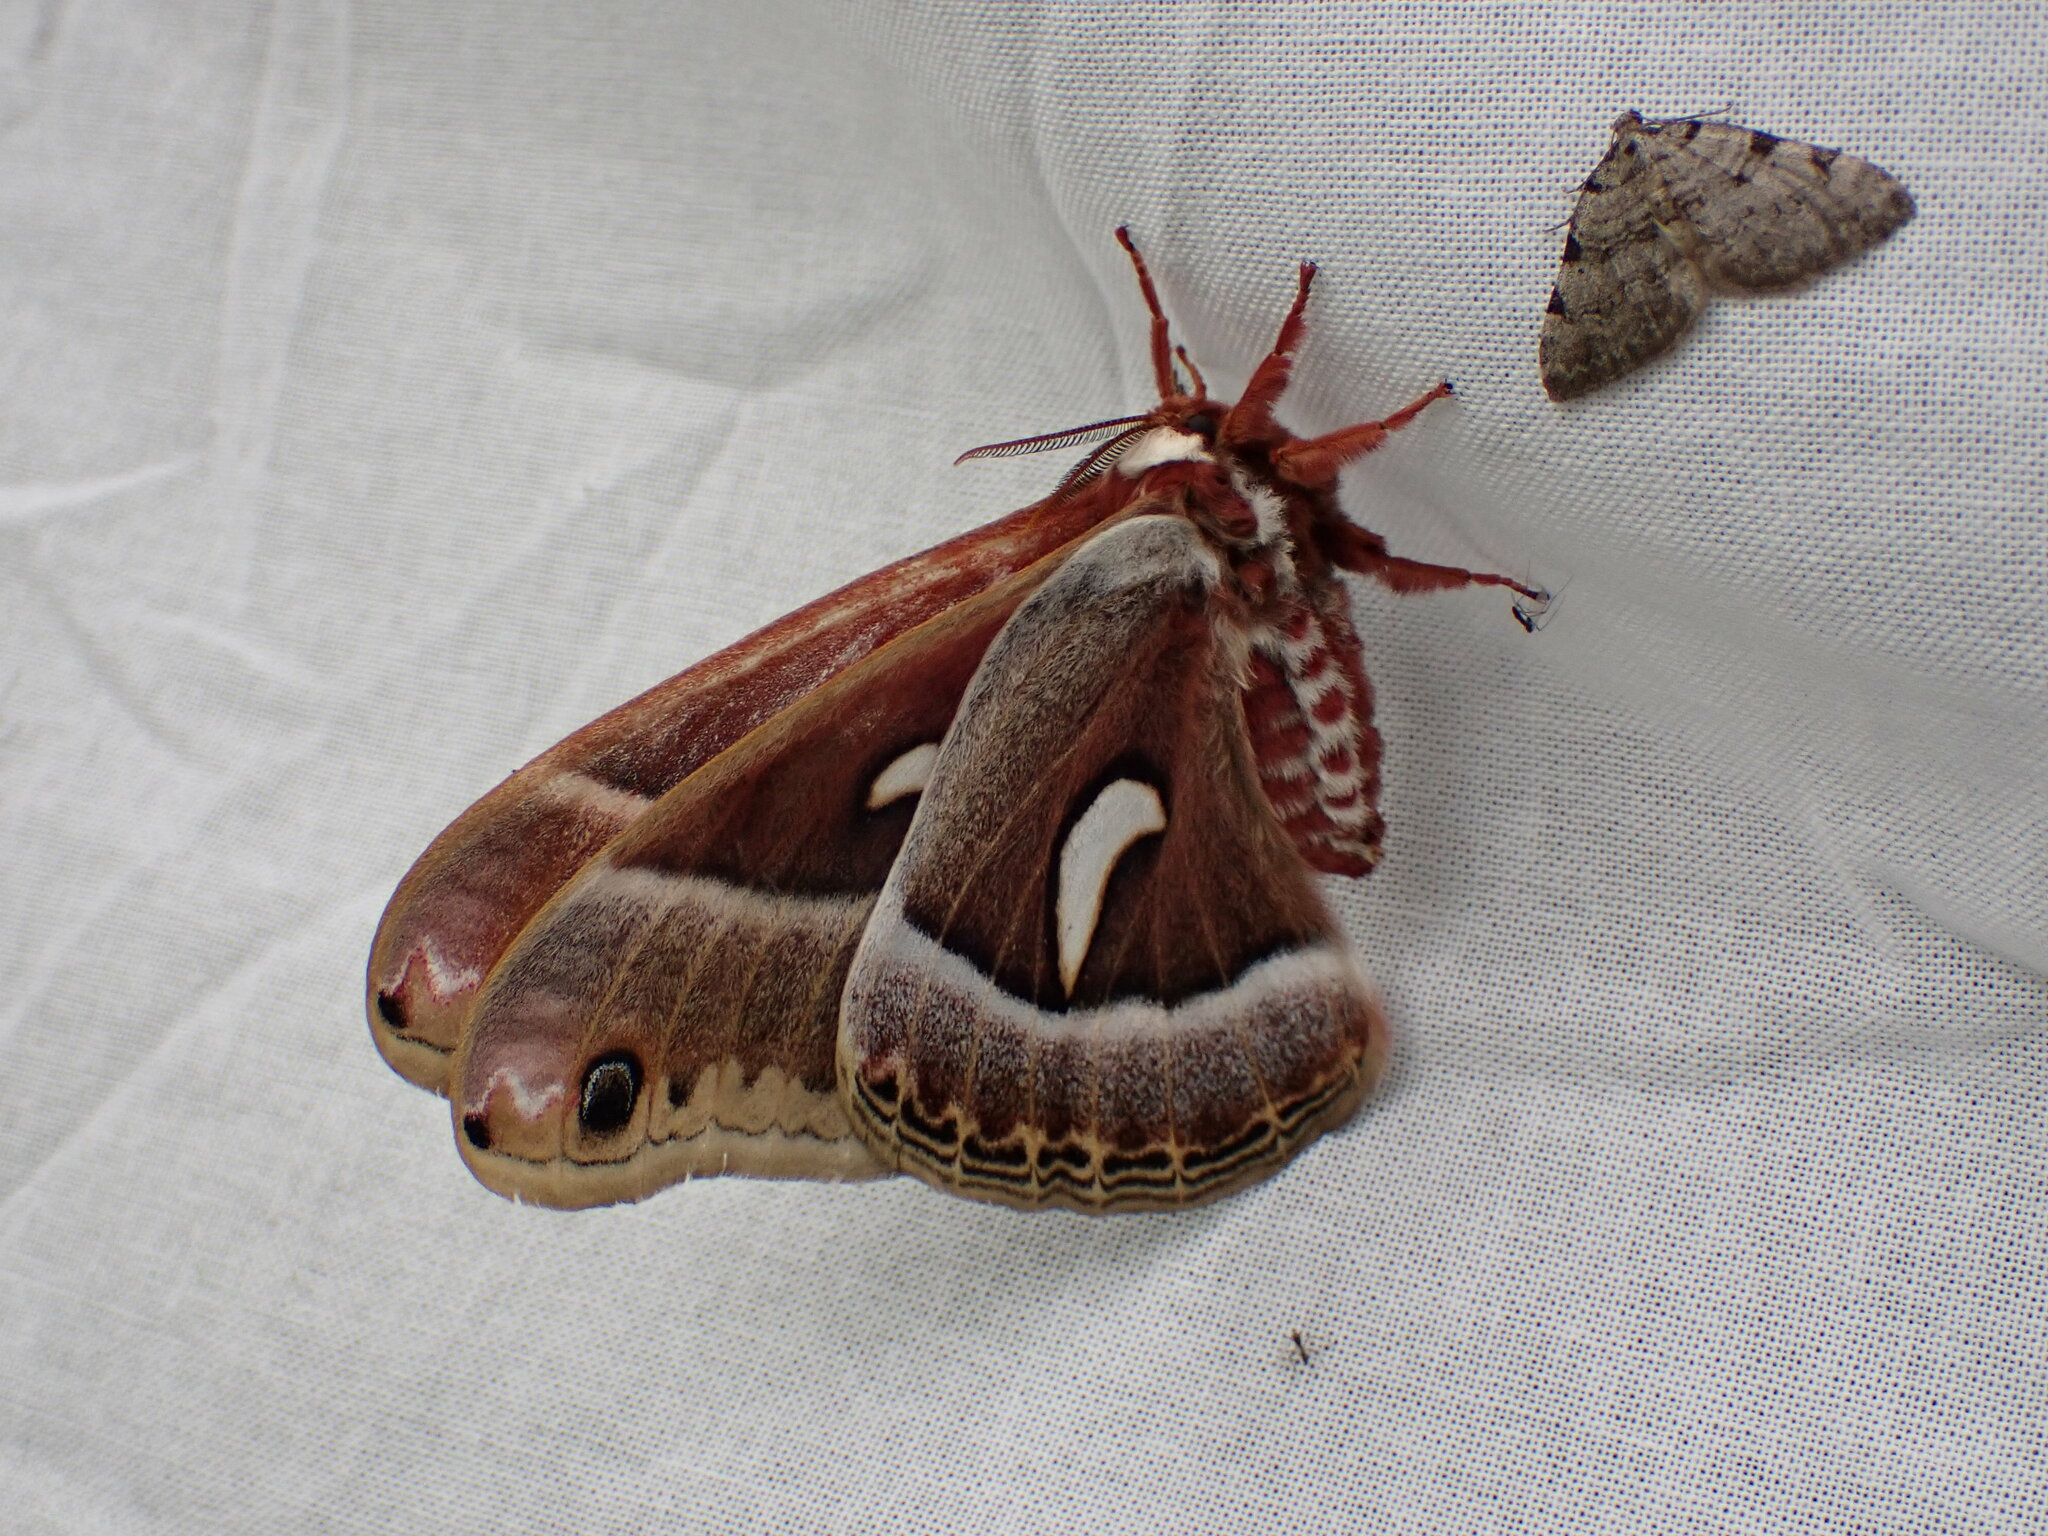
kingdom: Animalia
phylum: Arthropoda
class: Insecta
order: Lepidoptera
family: Saturniidae
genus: Hyalophora
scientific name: Hyalophora euryalus
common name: Ceanothus silkmoth
